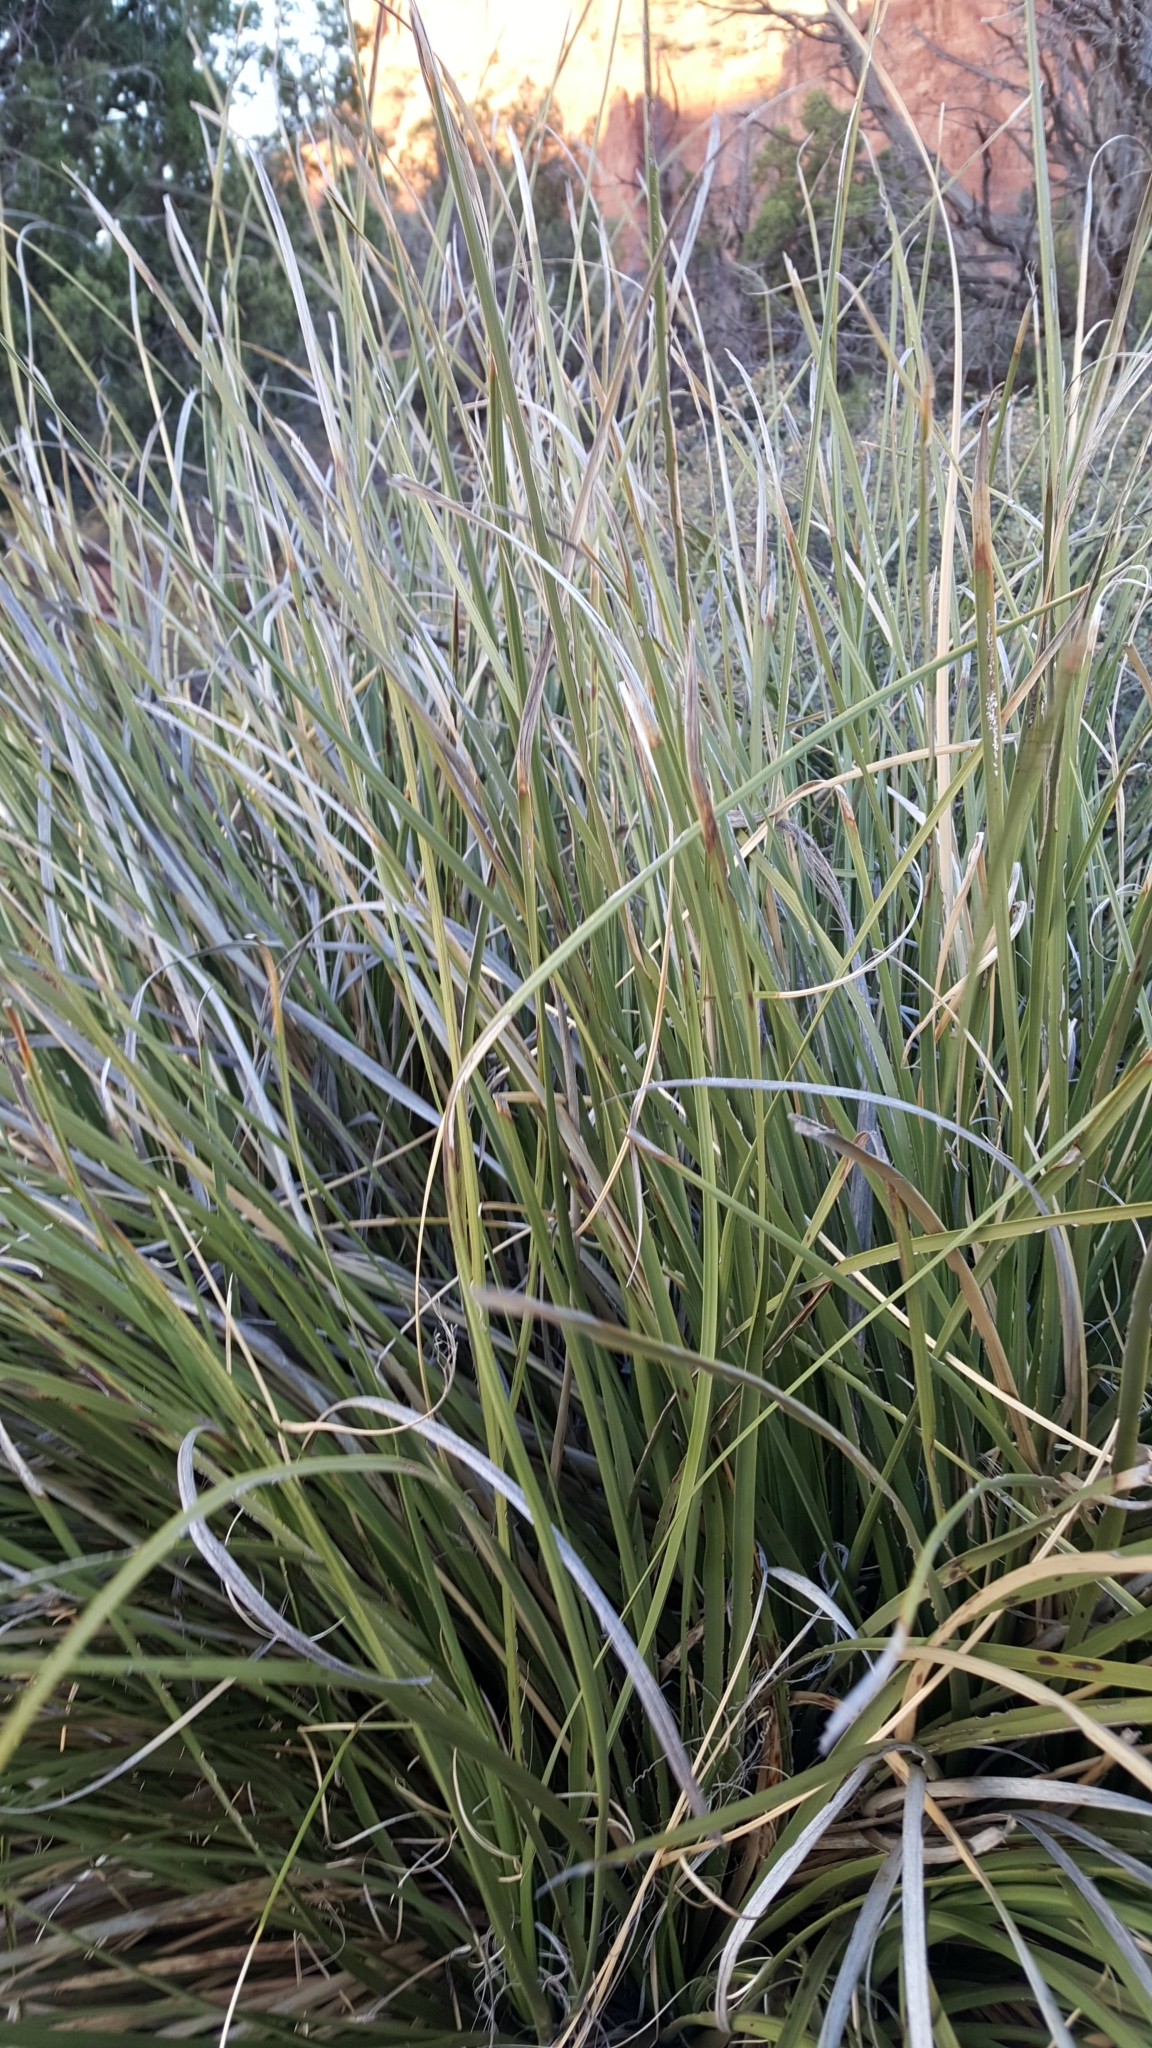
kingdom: Plantae
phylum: Tracheophyta
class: Liliopsida
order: Asparagales
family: Asparagaceae
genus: Nolina
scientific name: Nolina microcarpa
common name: Bear-grass
